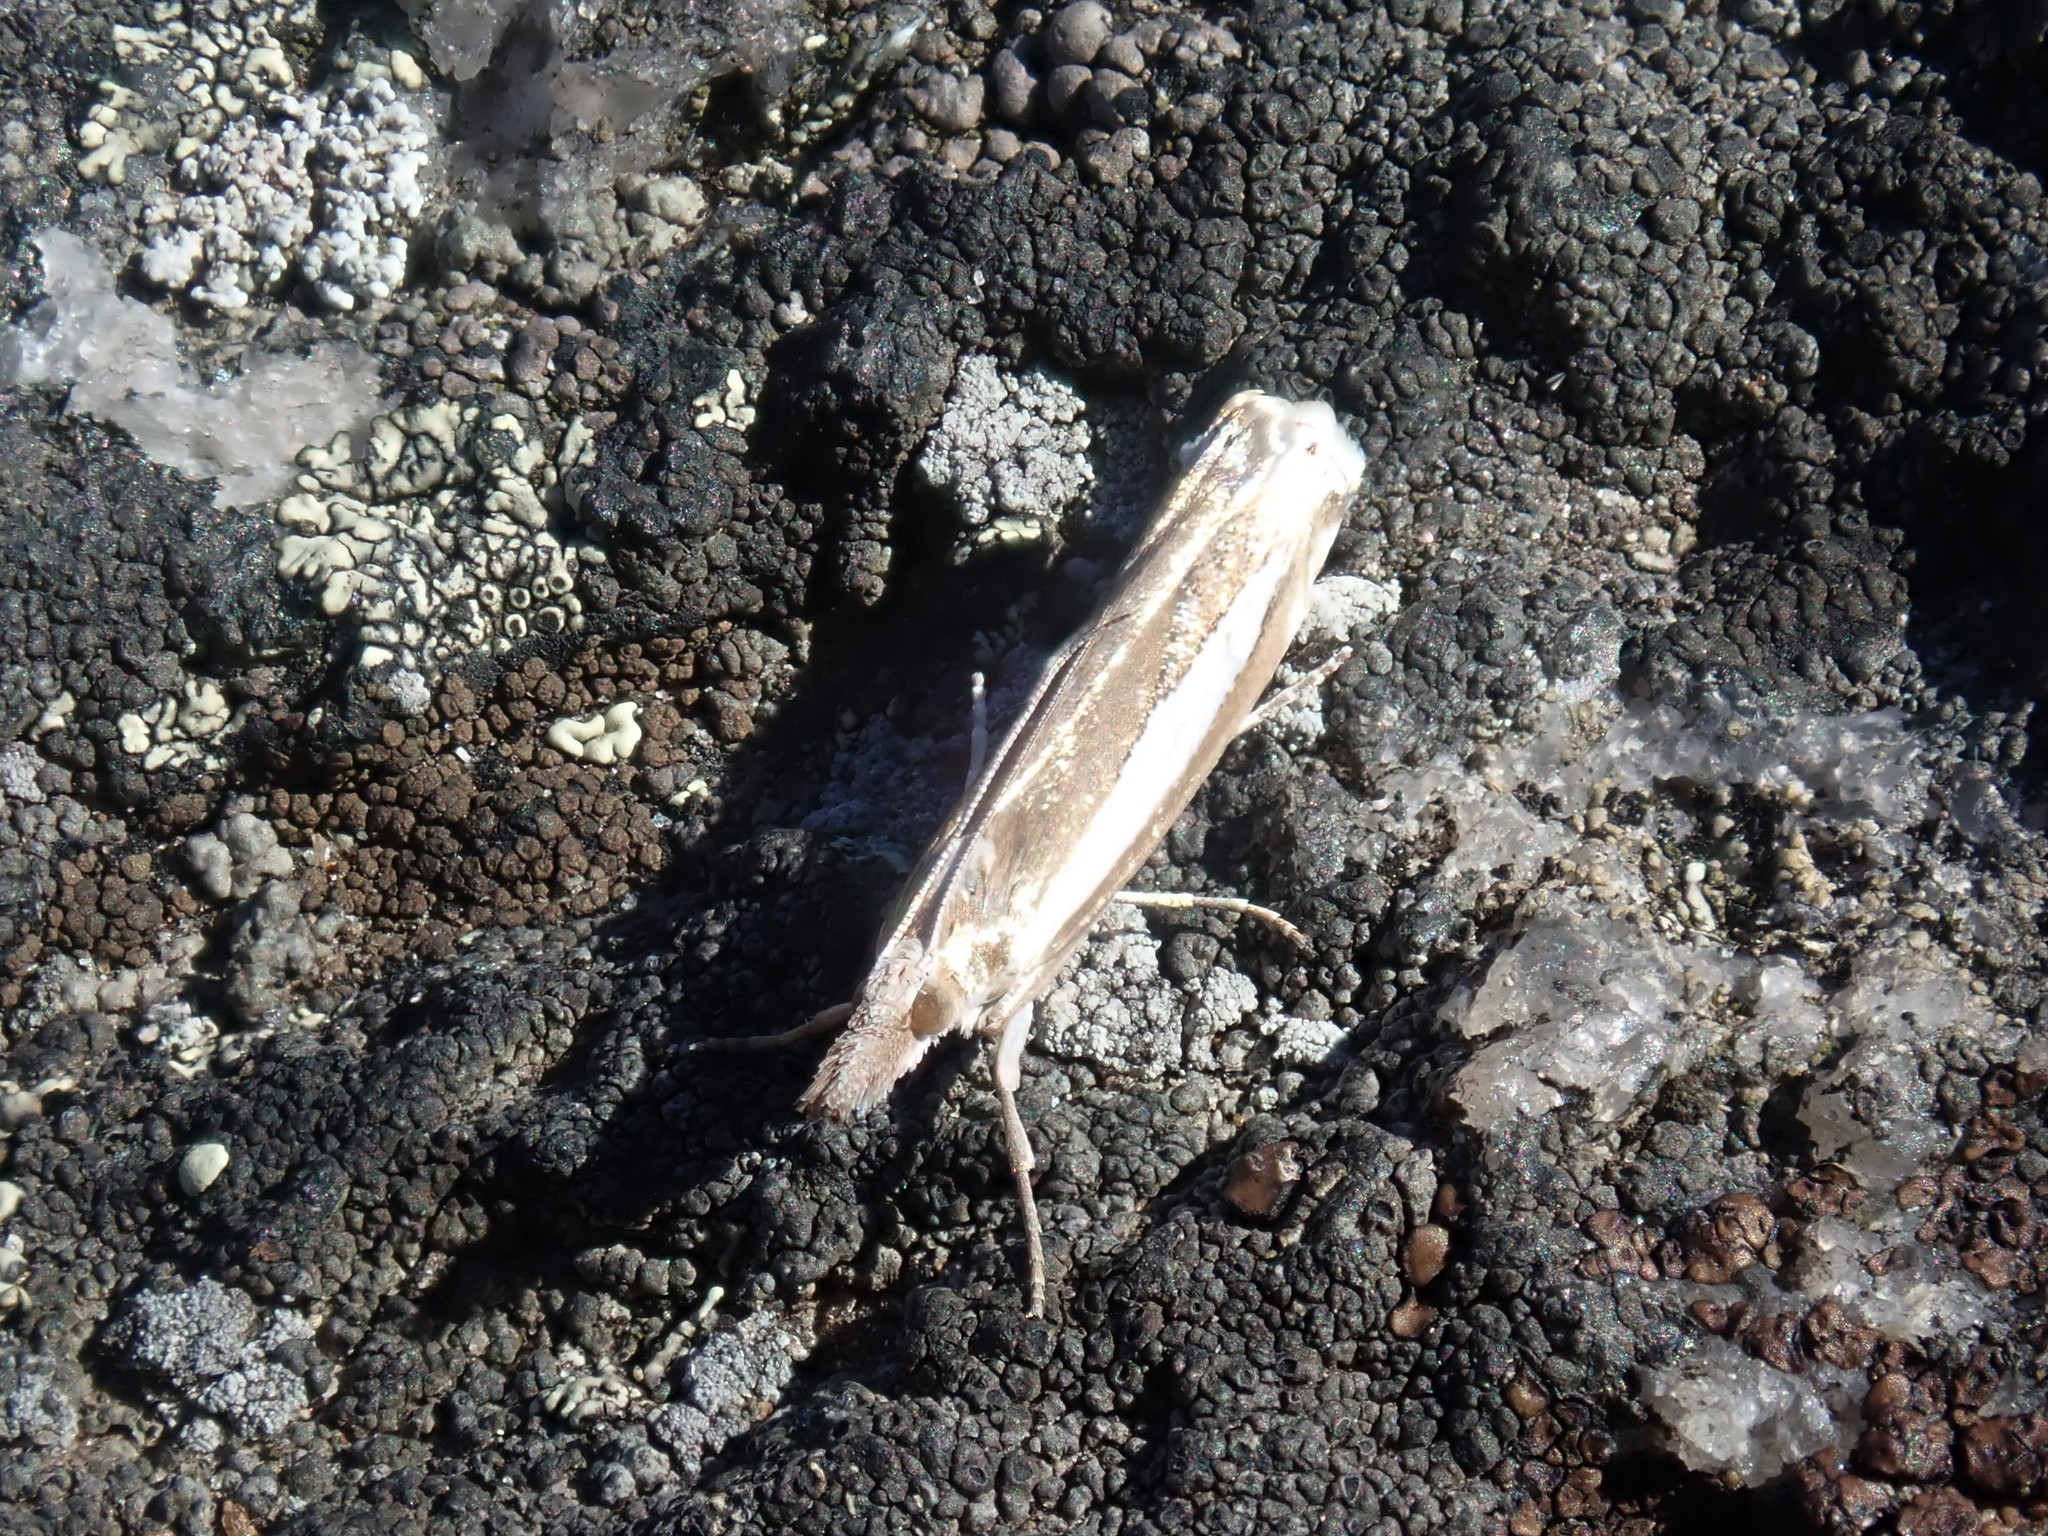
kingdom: Animalia
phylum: Arthropoda
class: Insecta
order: Lepidoptera
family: Crambidae
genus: Crambus
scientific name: Crambus praefectellus
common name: Common grass-veneer
